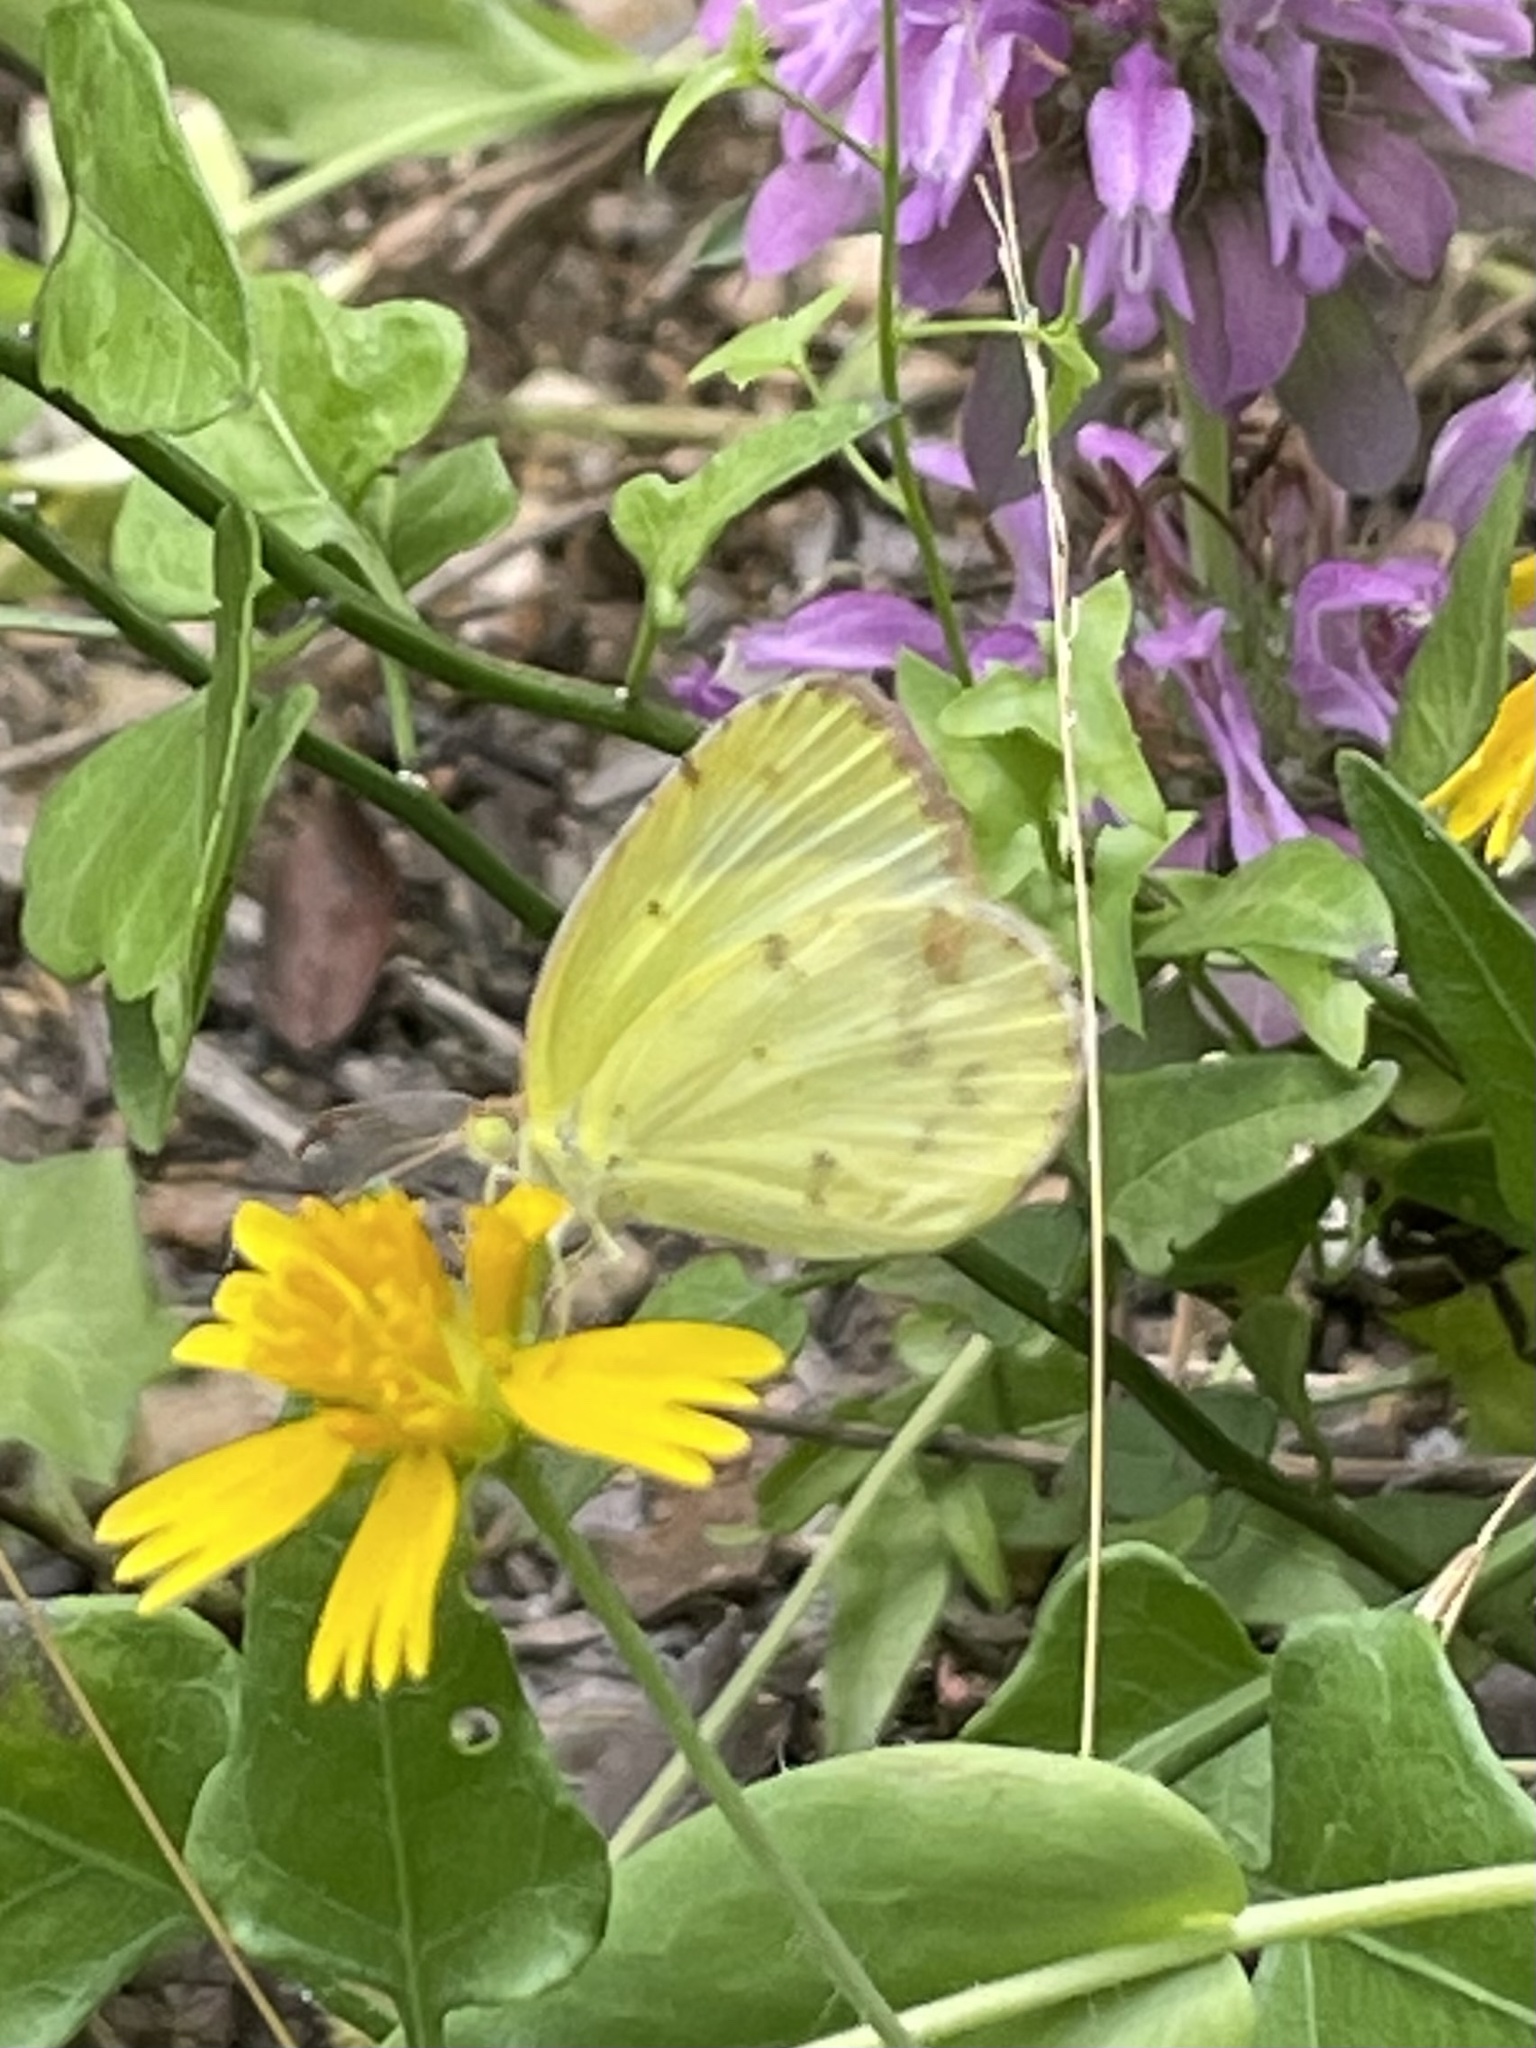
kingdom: Animalia
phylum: Arthropoda
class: Insecta
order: Lepidoptera
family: Pieridae
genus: Pyrisitia
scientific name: Pyrisitia lisa
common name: Little yellow
